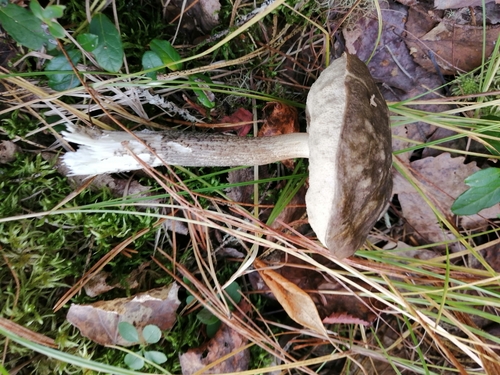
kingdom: Fungi
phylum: Basidiomycota
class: Agaricomycetes
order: Boletales
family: Boletaceae
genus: Leccinum
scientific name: Leccinum
